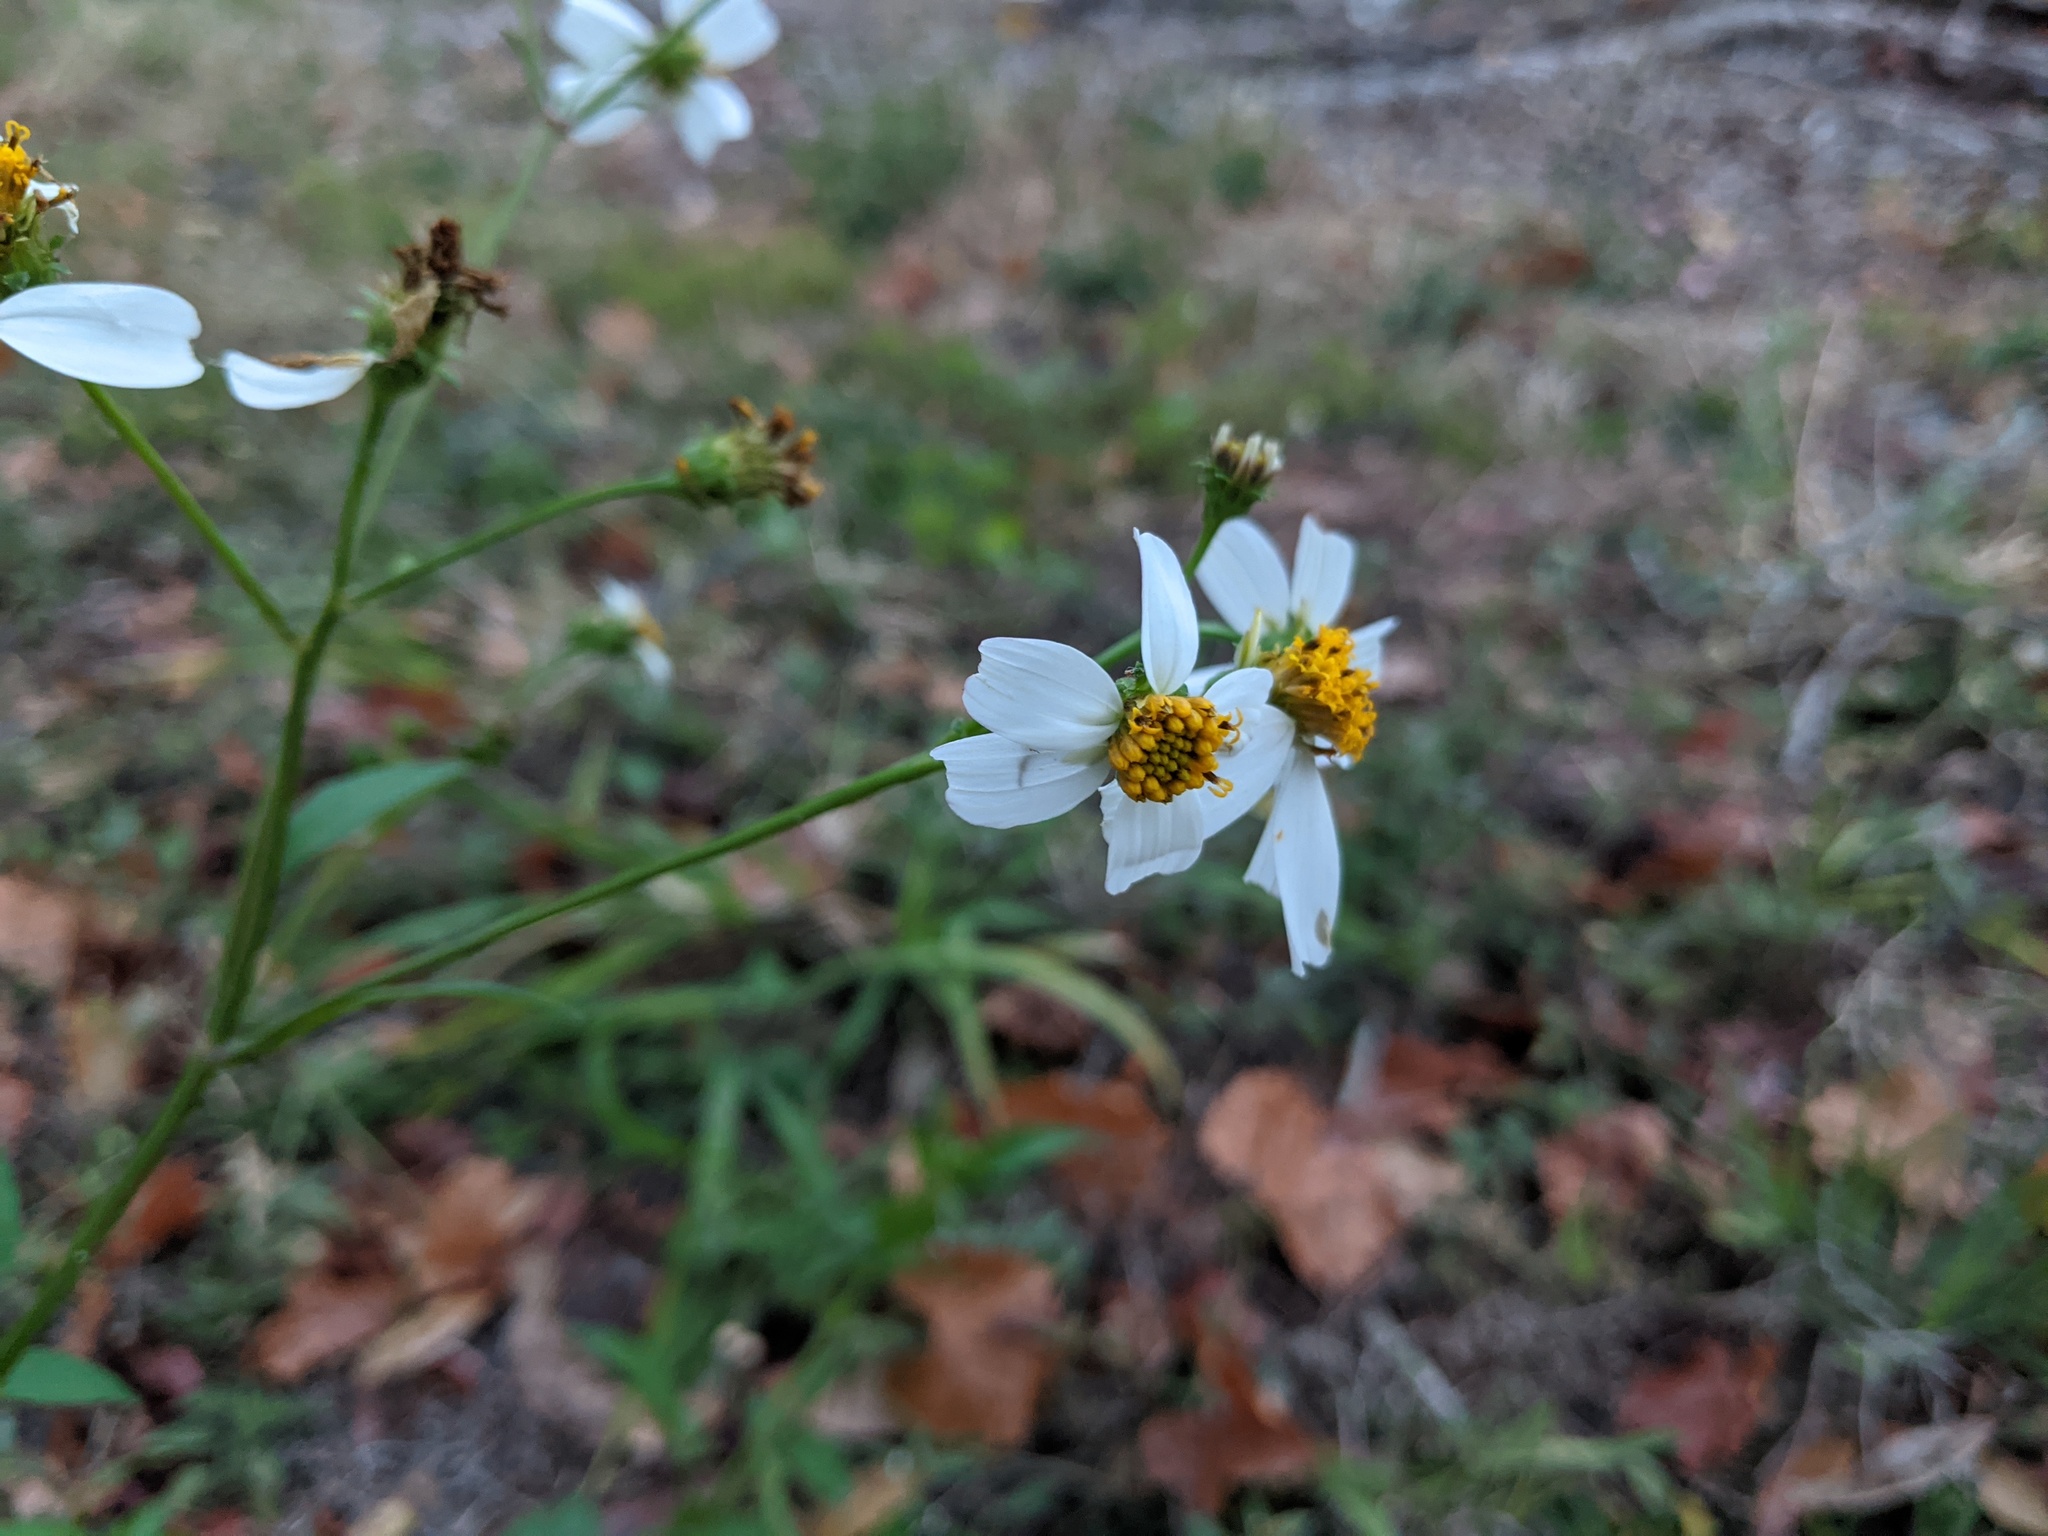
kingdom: Plantae
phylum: Tracheophyta
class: Magnoliopsida
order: Asterales
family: Asteraceae
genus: Bidens
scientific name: Bidens alba
